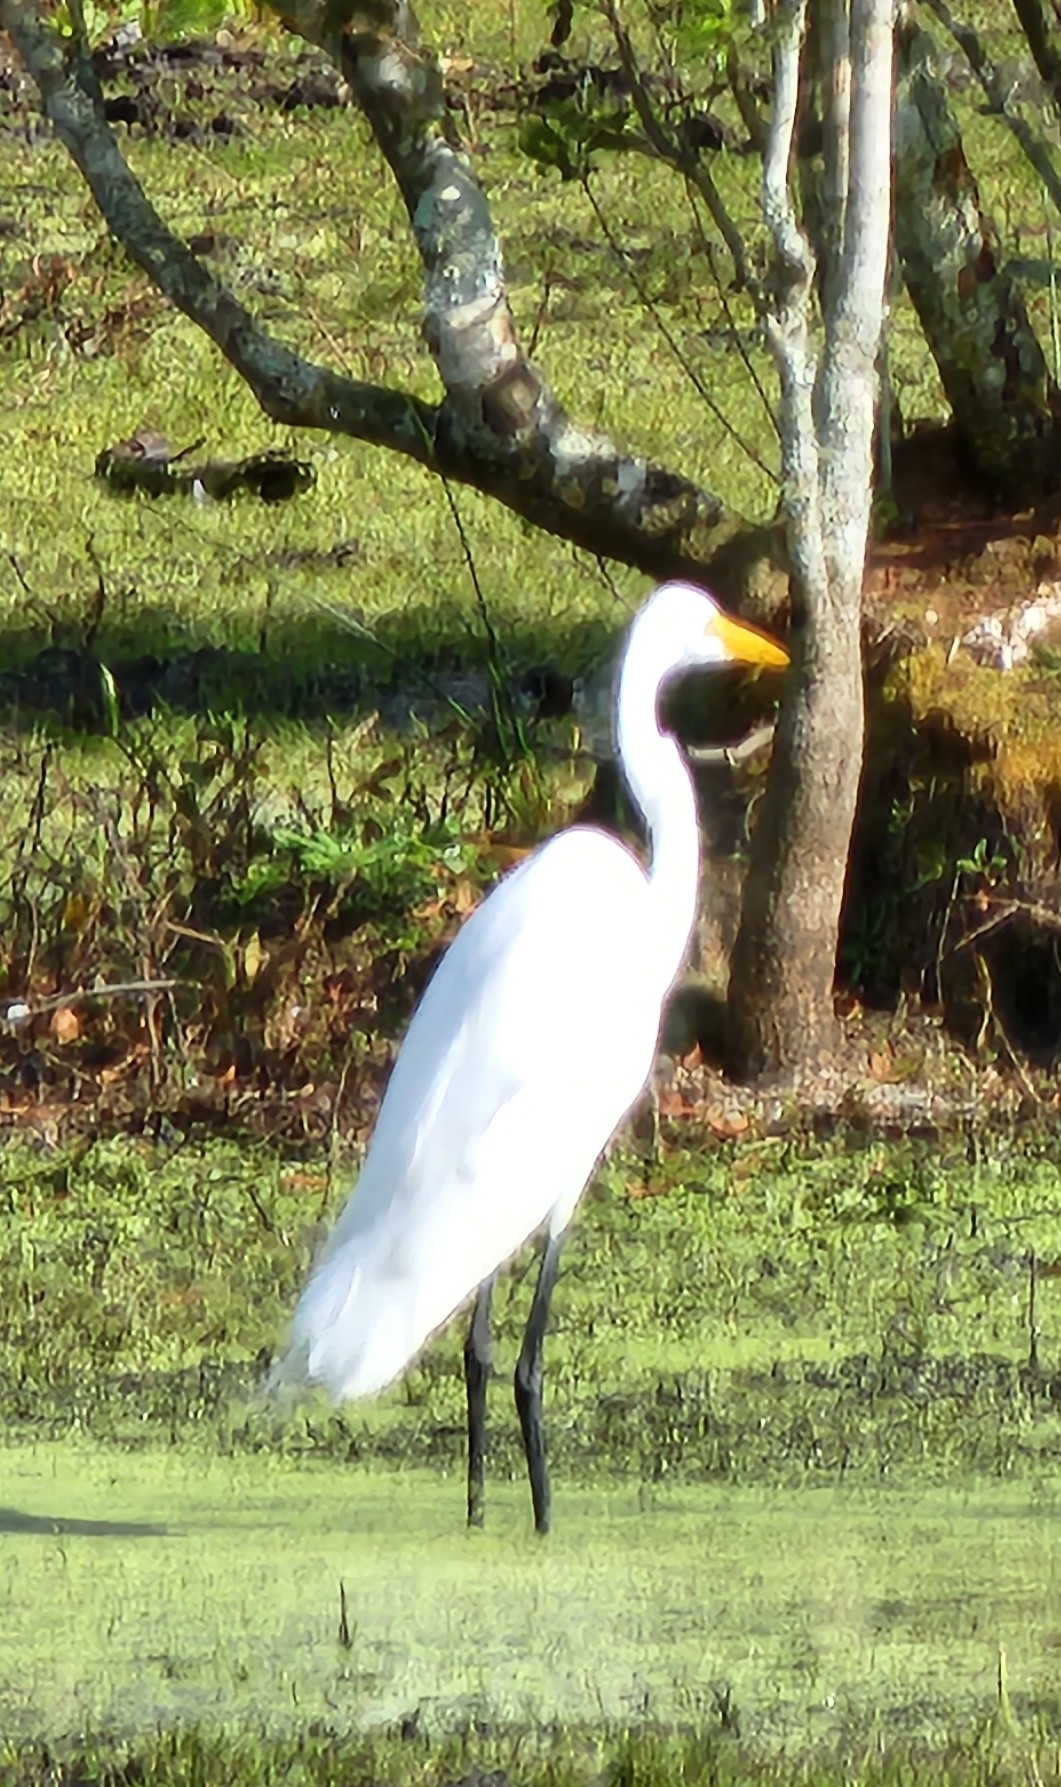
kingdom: Animalia
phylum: Chordata
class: Aves
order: Pelecaniformes
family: Ardeidae
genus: Ardea
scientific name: Ardea alba
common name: Great egret
